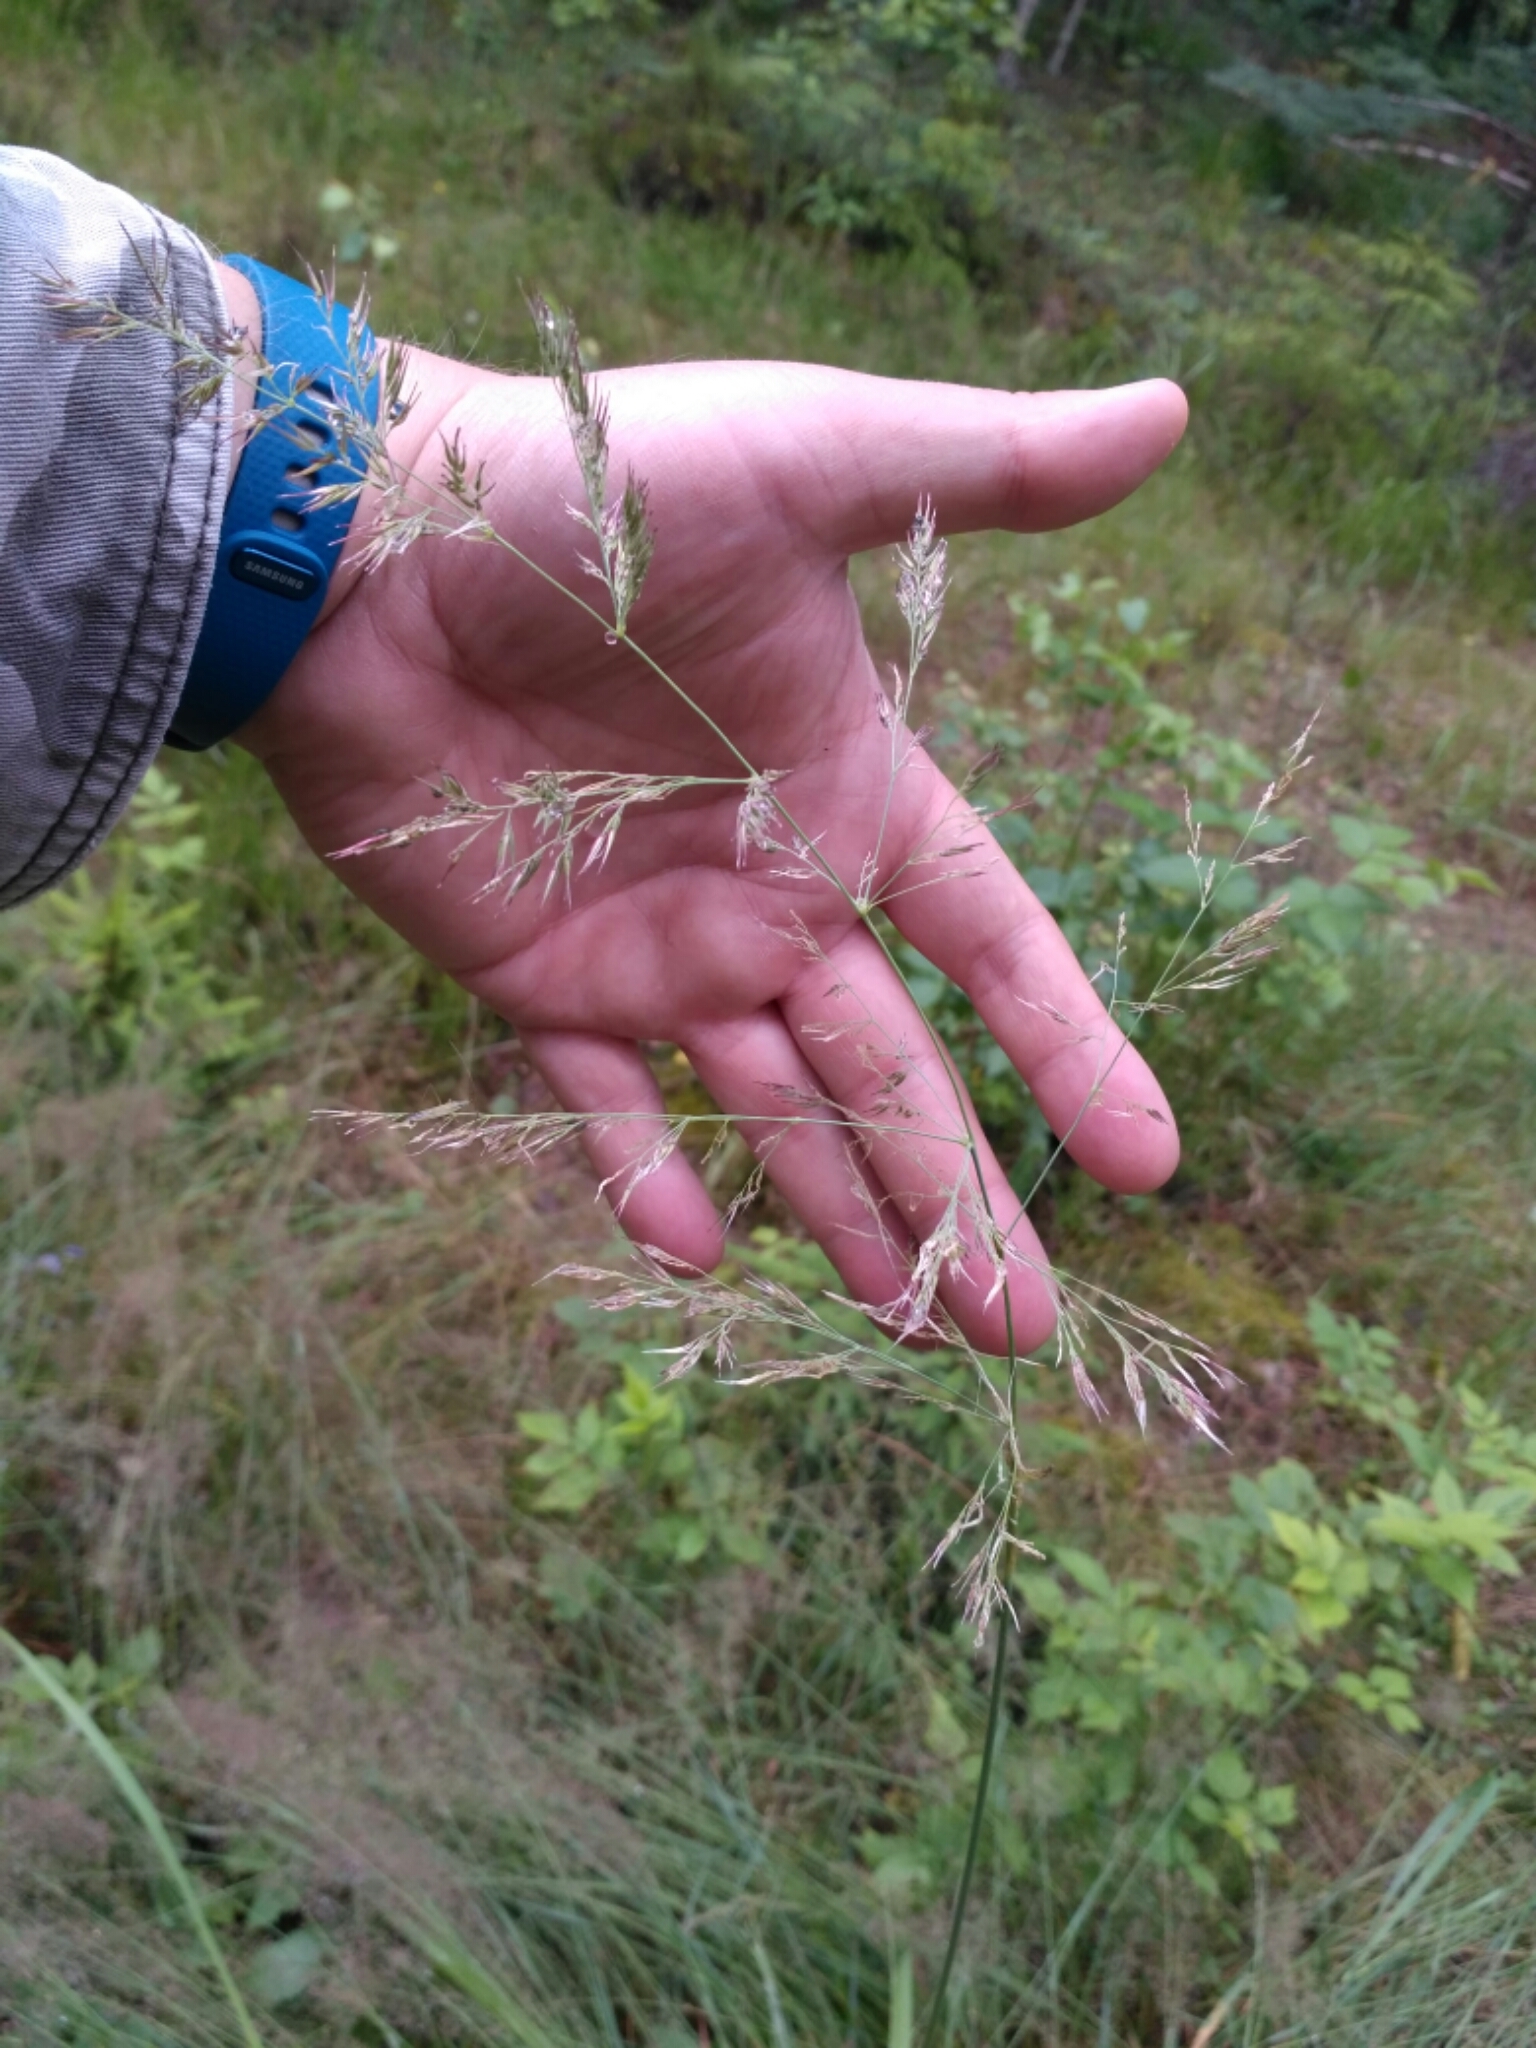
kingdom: Plantae
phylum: Tracheophyta
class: Liliopsida
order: Poales
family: Poaceae
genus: Calamagrostis
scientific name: Calamagrostis epigejos
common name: Wood small-reed
